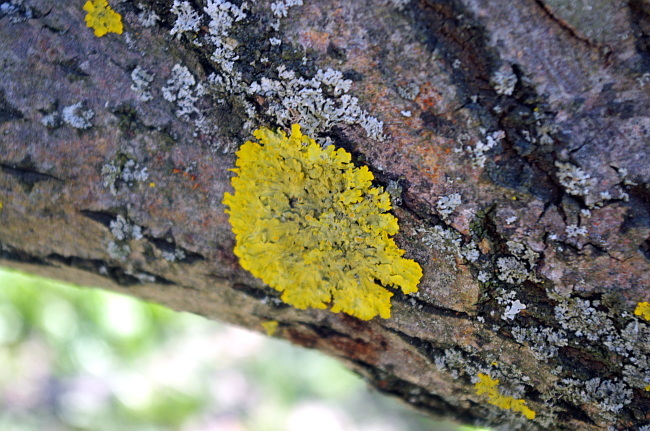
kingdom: Fungi
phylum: Ascomycota
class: Lecanoromycetes
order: Teloschistales
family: Teloschistaceae
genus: Xanthoria
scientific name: Xanthoria parietina
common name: Common orange lichen
